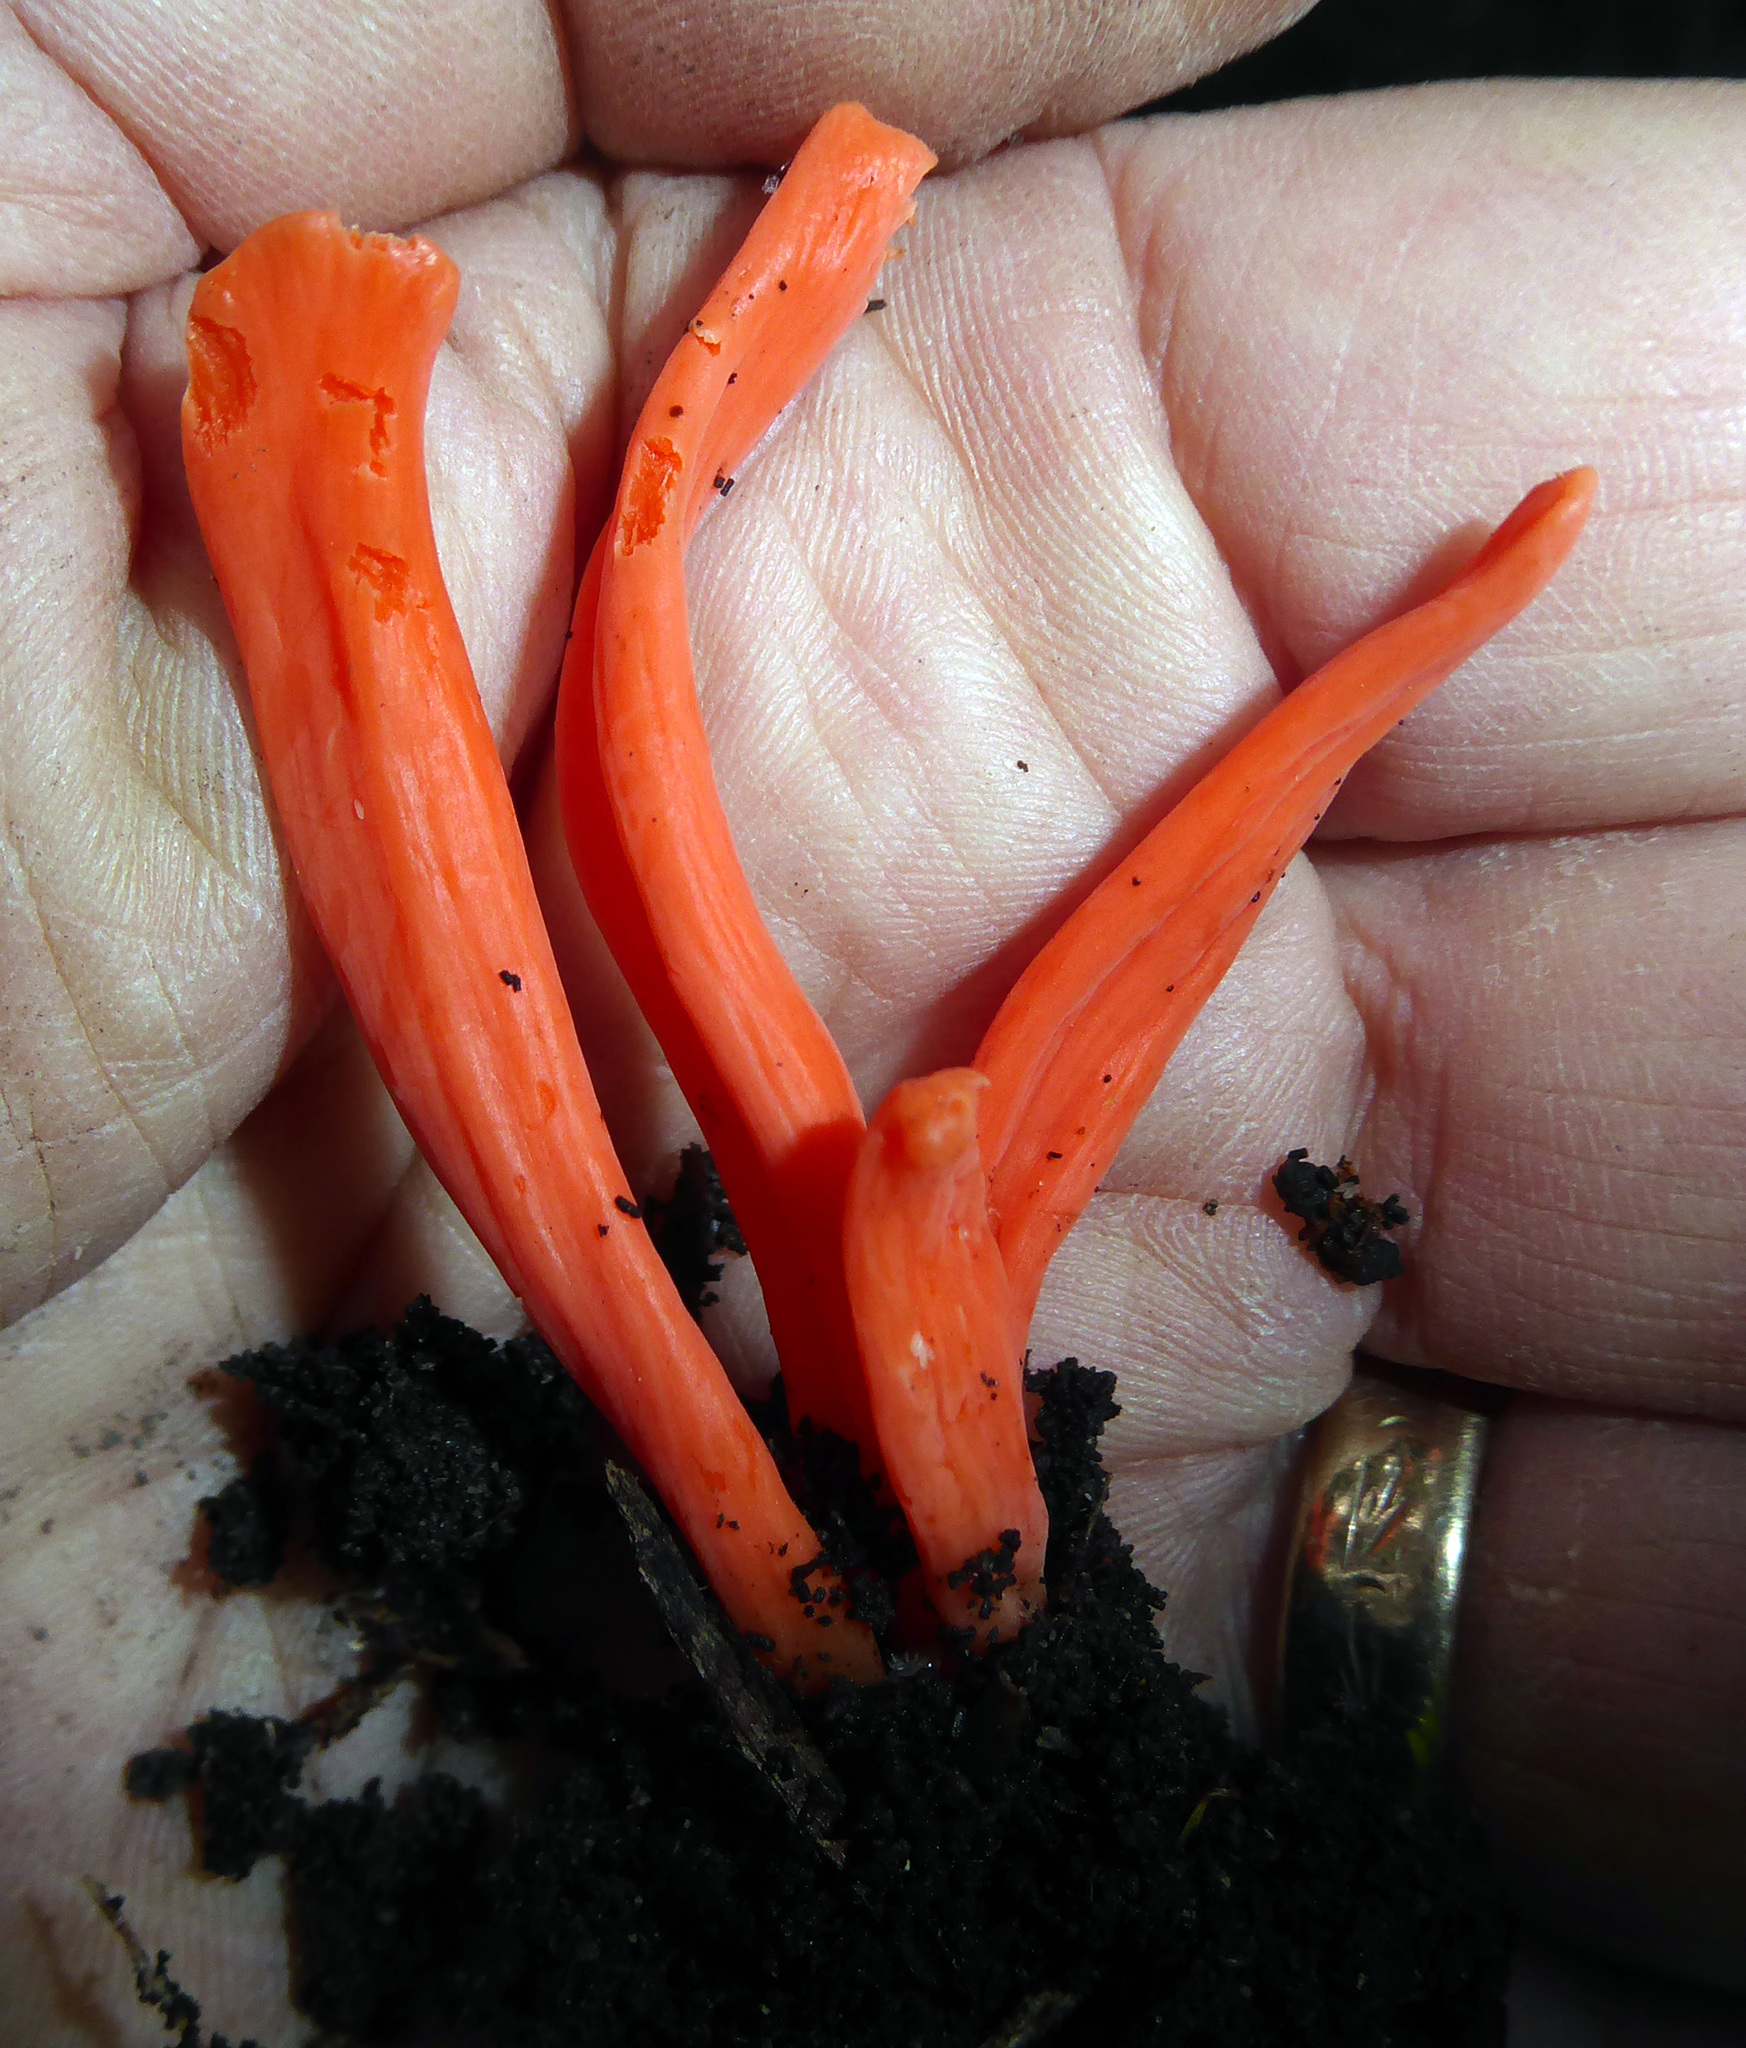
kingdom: Fungi
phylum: Basidiomycota
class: Agaricomycetes
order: Agaricales
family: Clavariaceae
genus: Clavulinopsis
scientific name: Clavulinopsis sulcata
